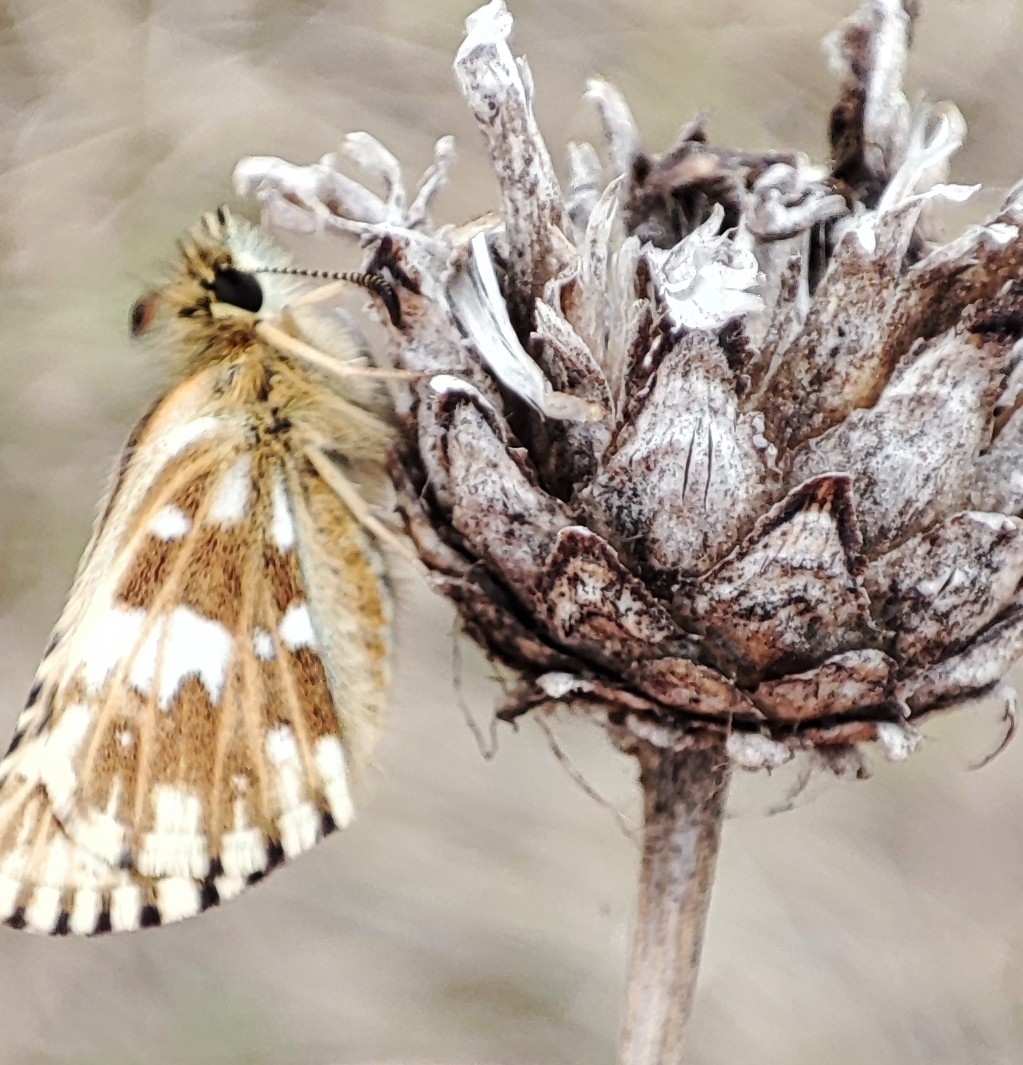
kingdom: Animalia
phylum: Arthropoda
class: Insecta
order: Lepidoptera
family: Hesperiidae
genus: Pyrgus
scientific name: Pyrgus malvae
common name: Grizzled skipper
